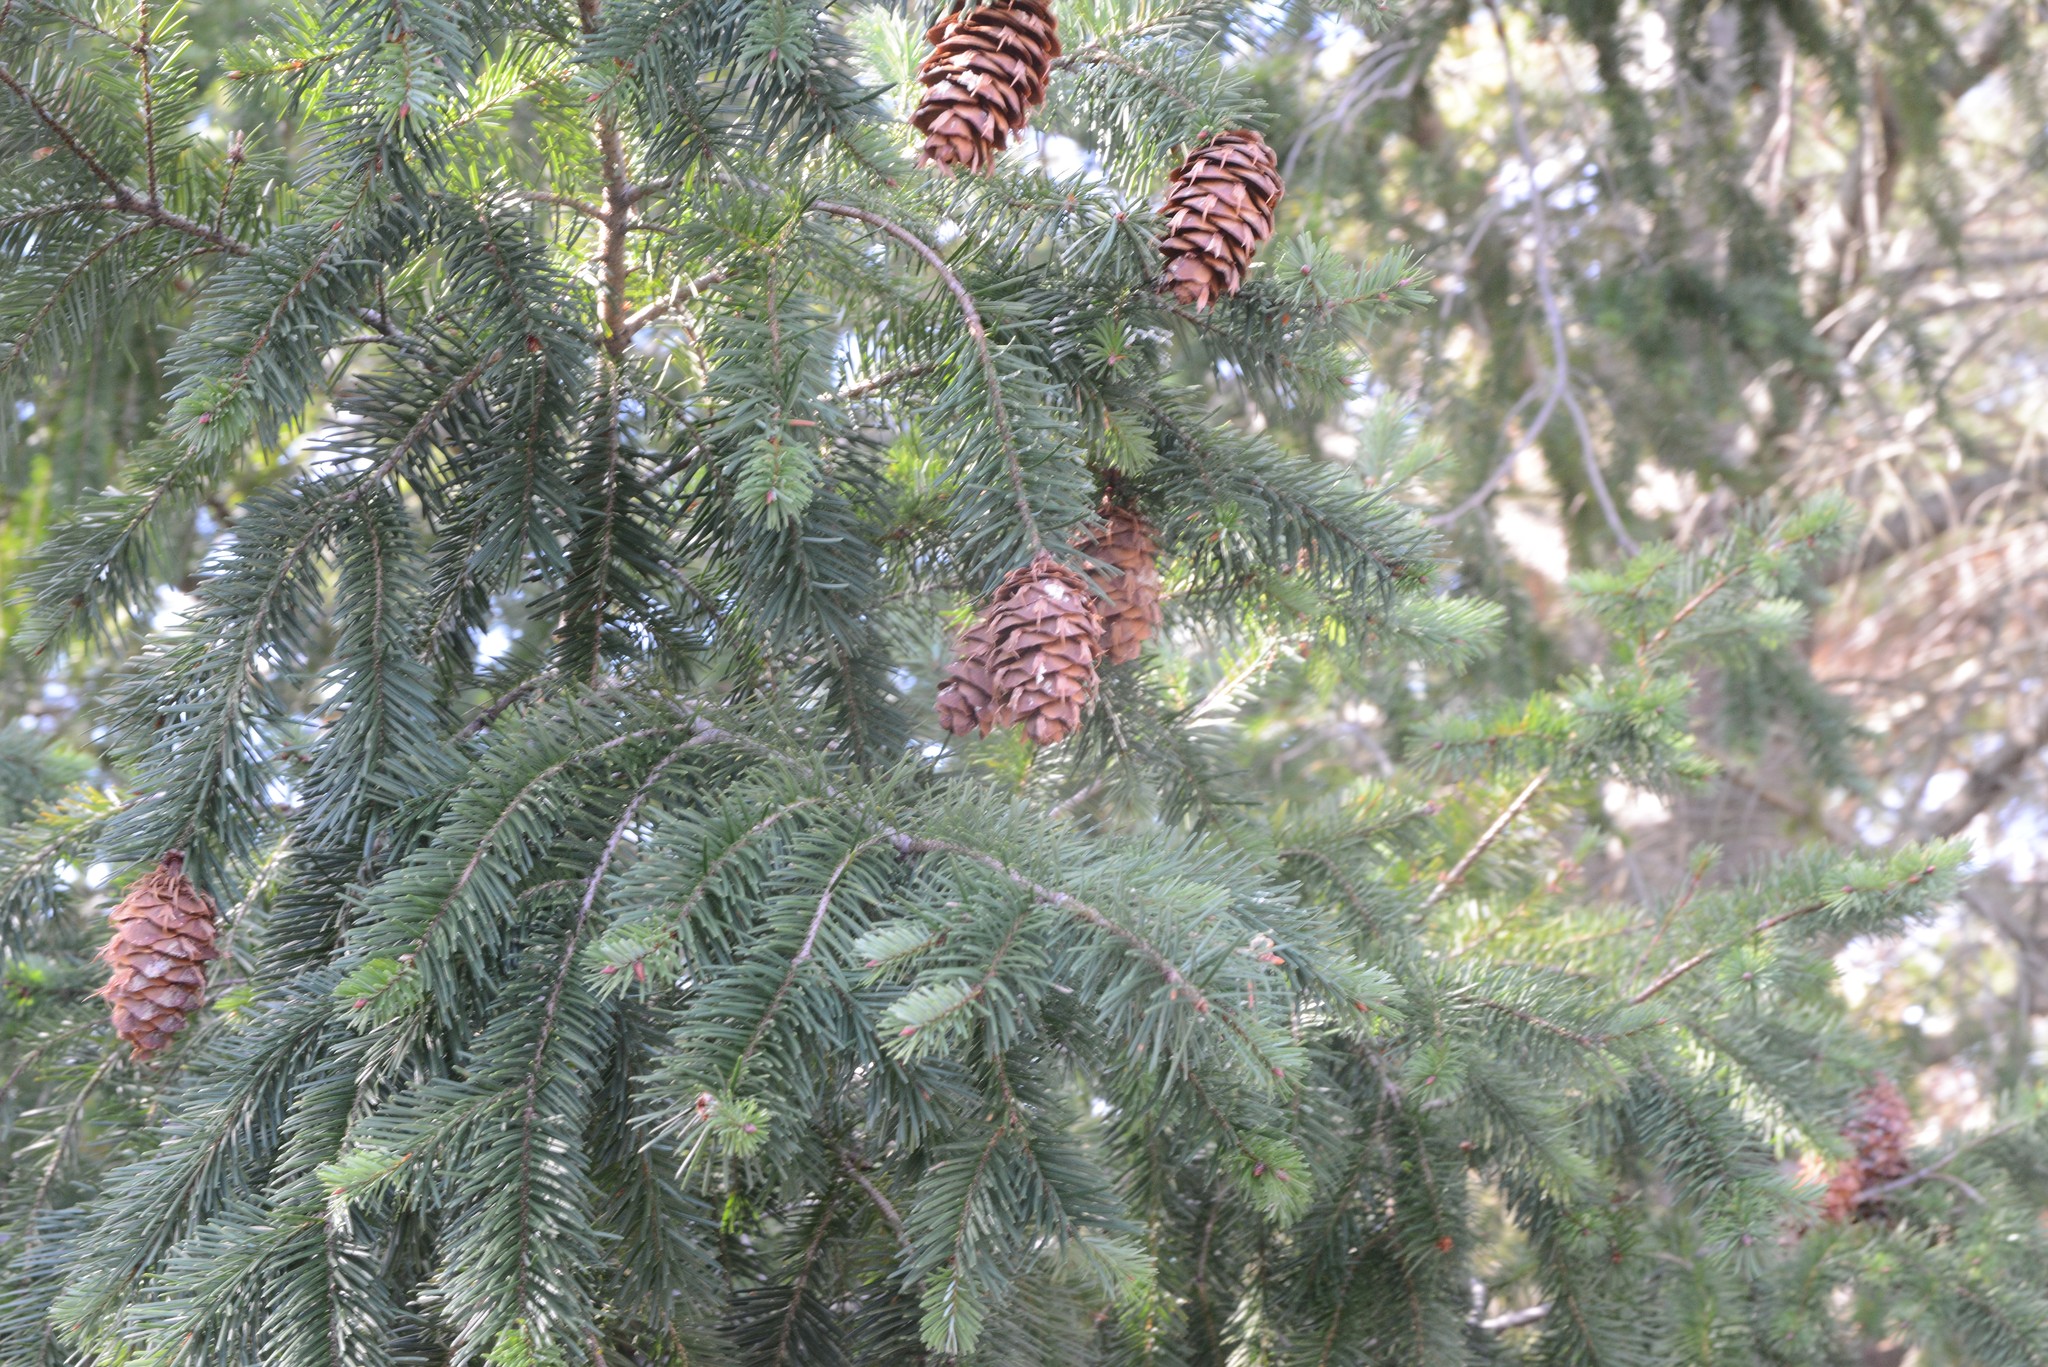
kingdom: Plantae
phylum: Tracheophyta
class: Pinopsida
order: Pinales
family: Pinaceae
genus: Pseudotsuga
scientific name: Pseudotsuga menziesii
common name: Douglas fir
